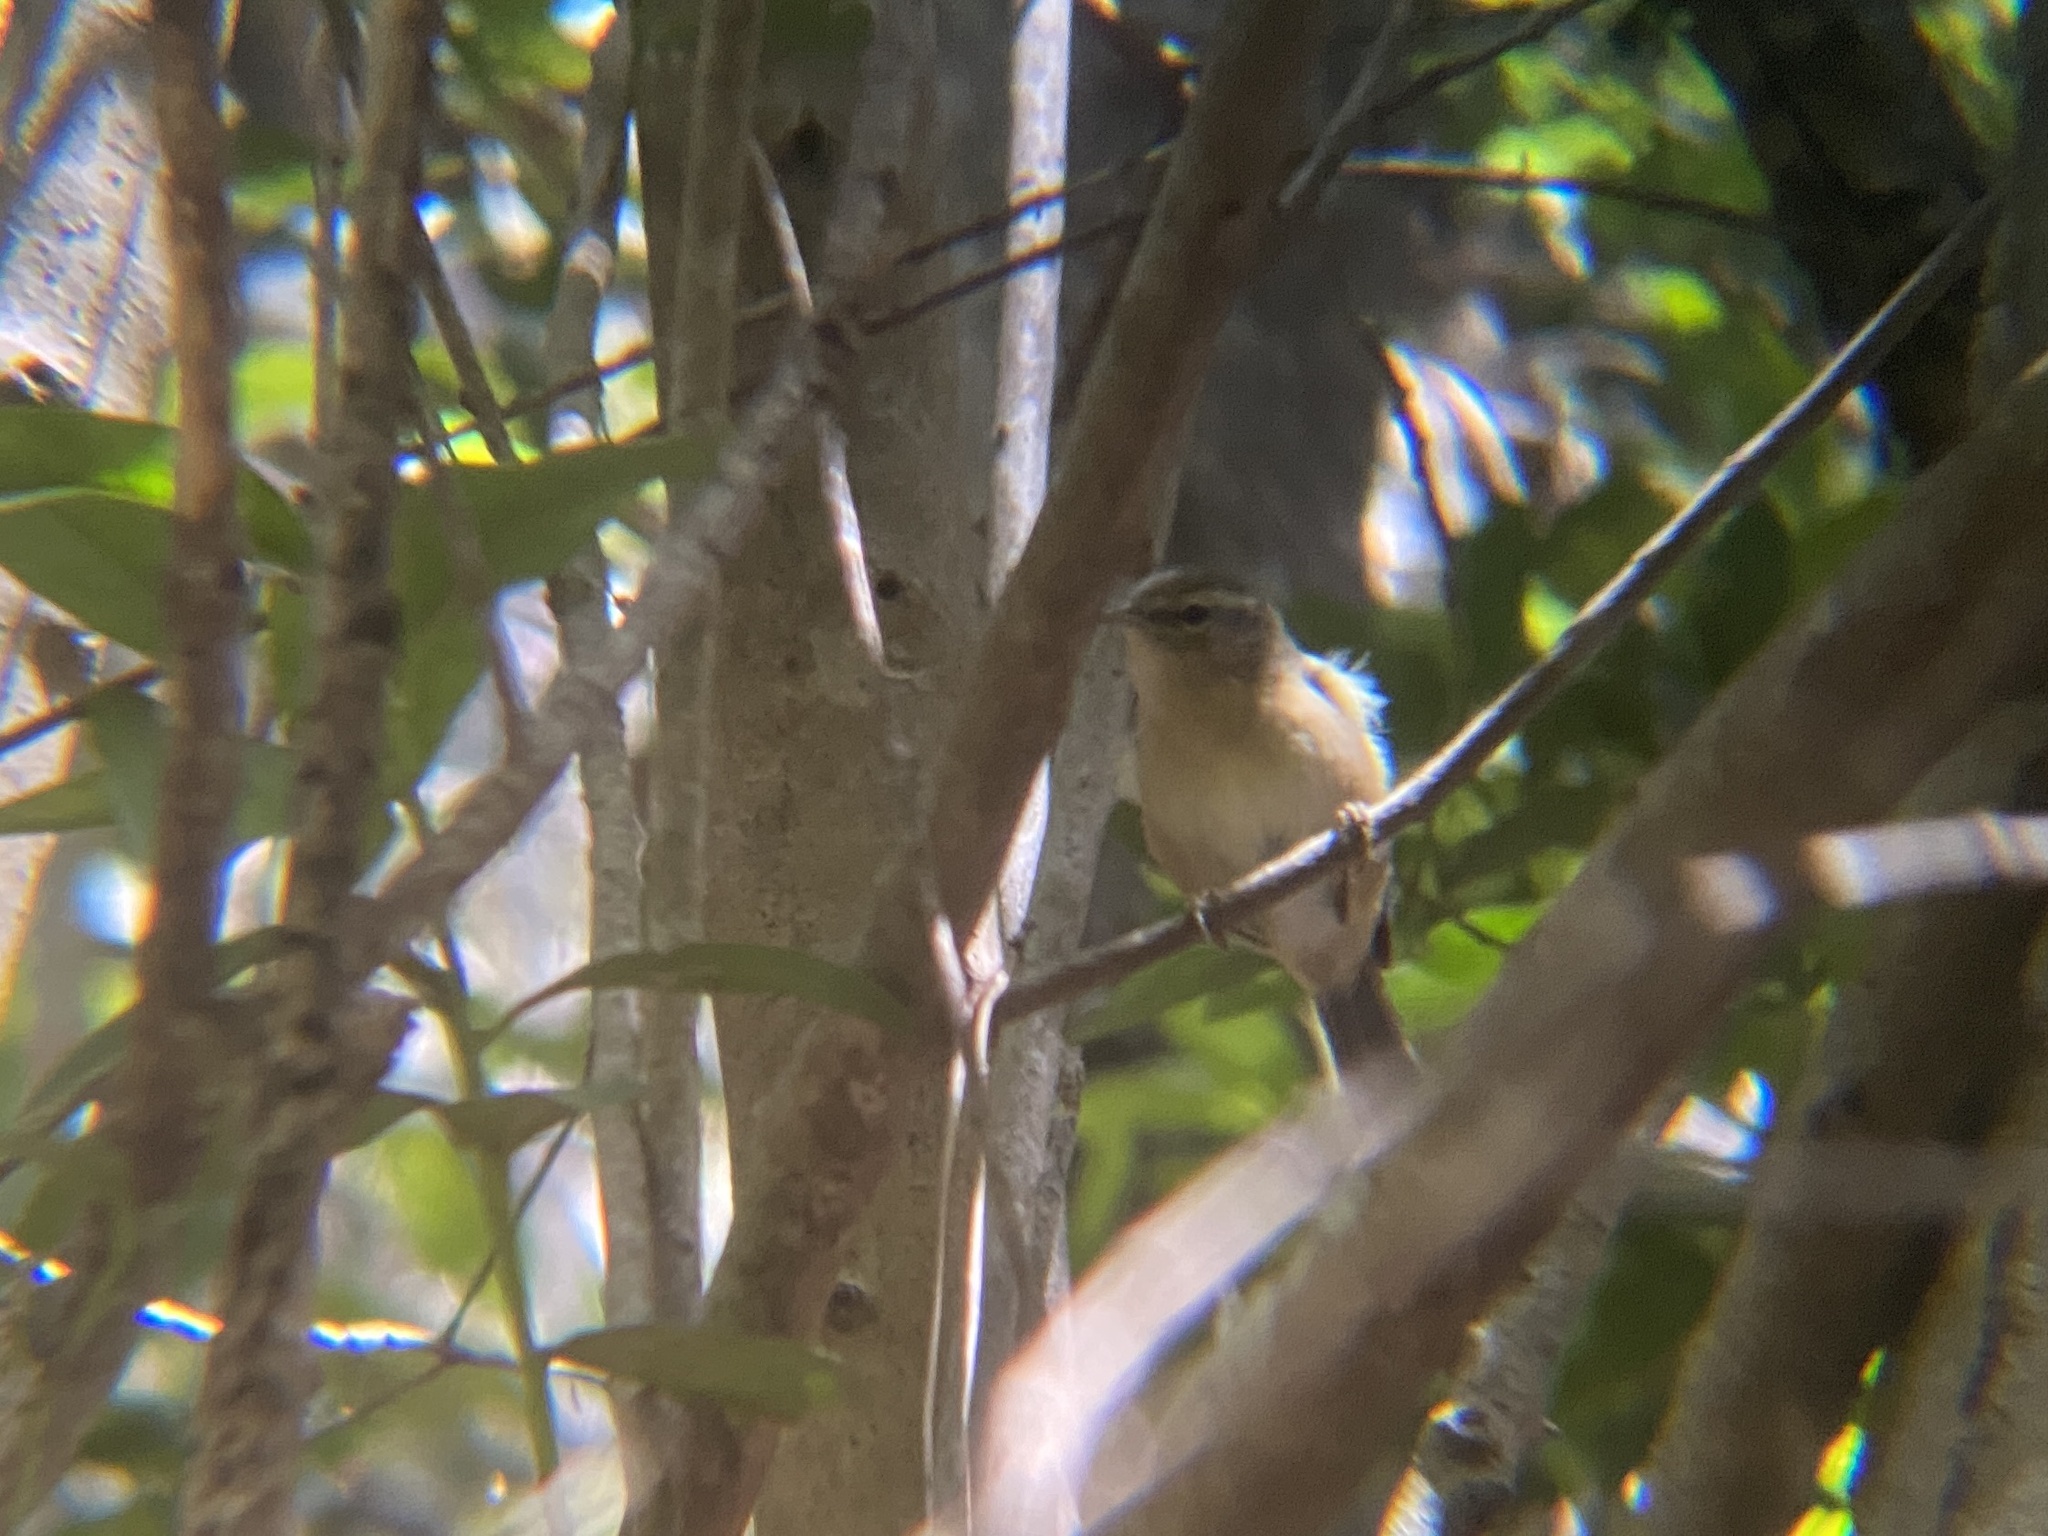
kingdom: Animalia
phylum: Chordata
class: Aves
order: Passeriformes
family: Phylloscopidae
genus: Phylloscopus
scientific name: Phylloscopus canariensis
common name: Canary islands chiffchaff
